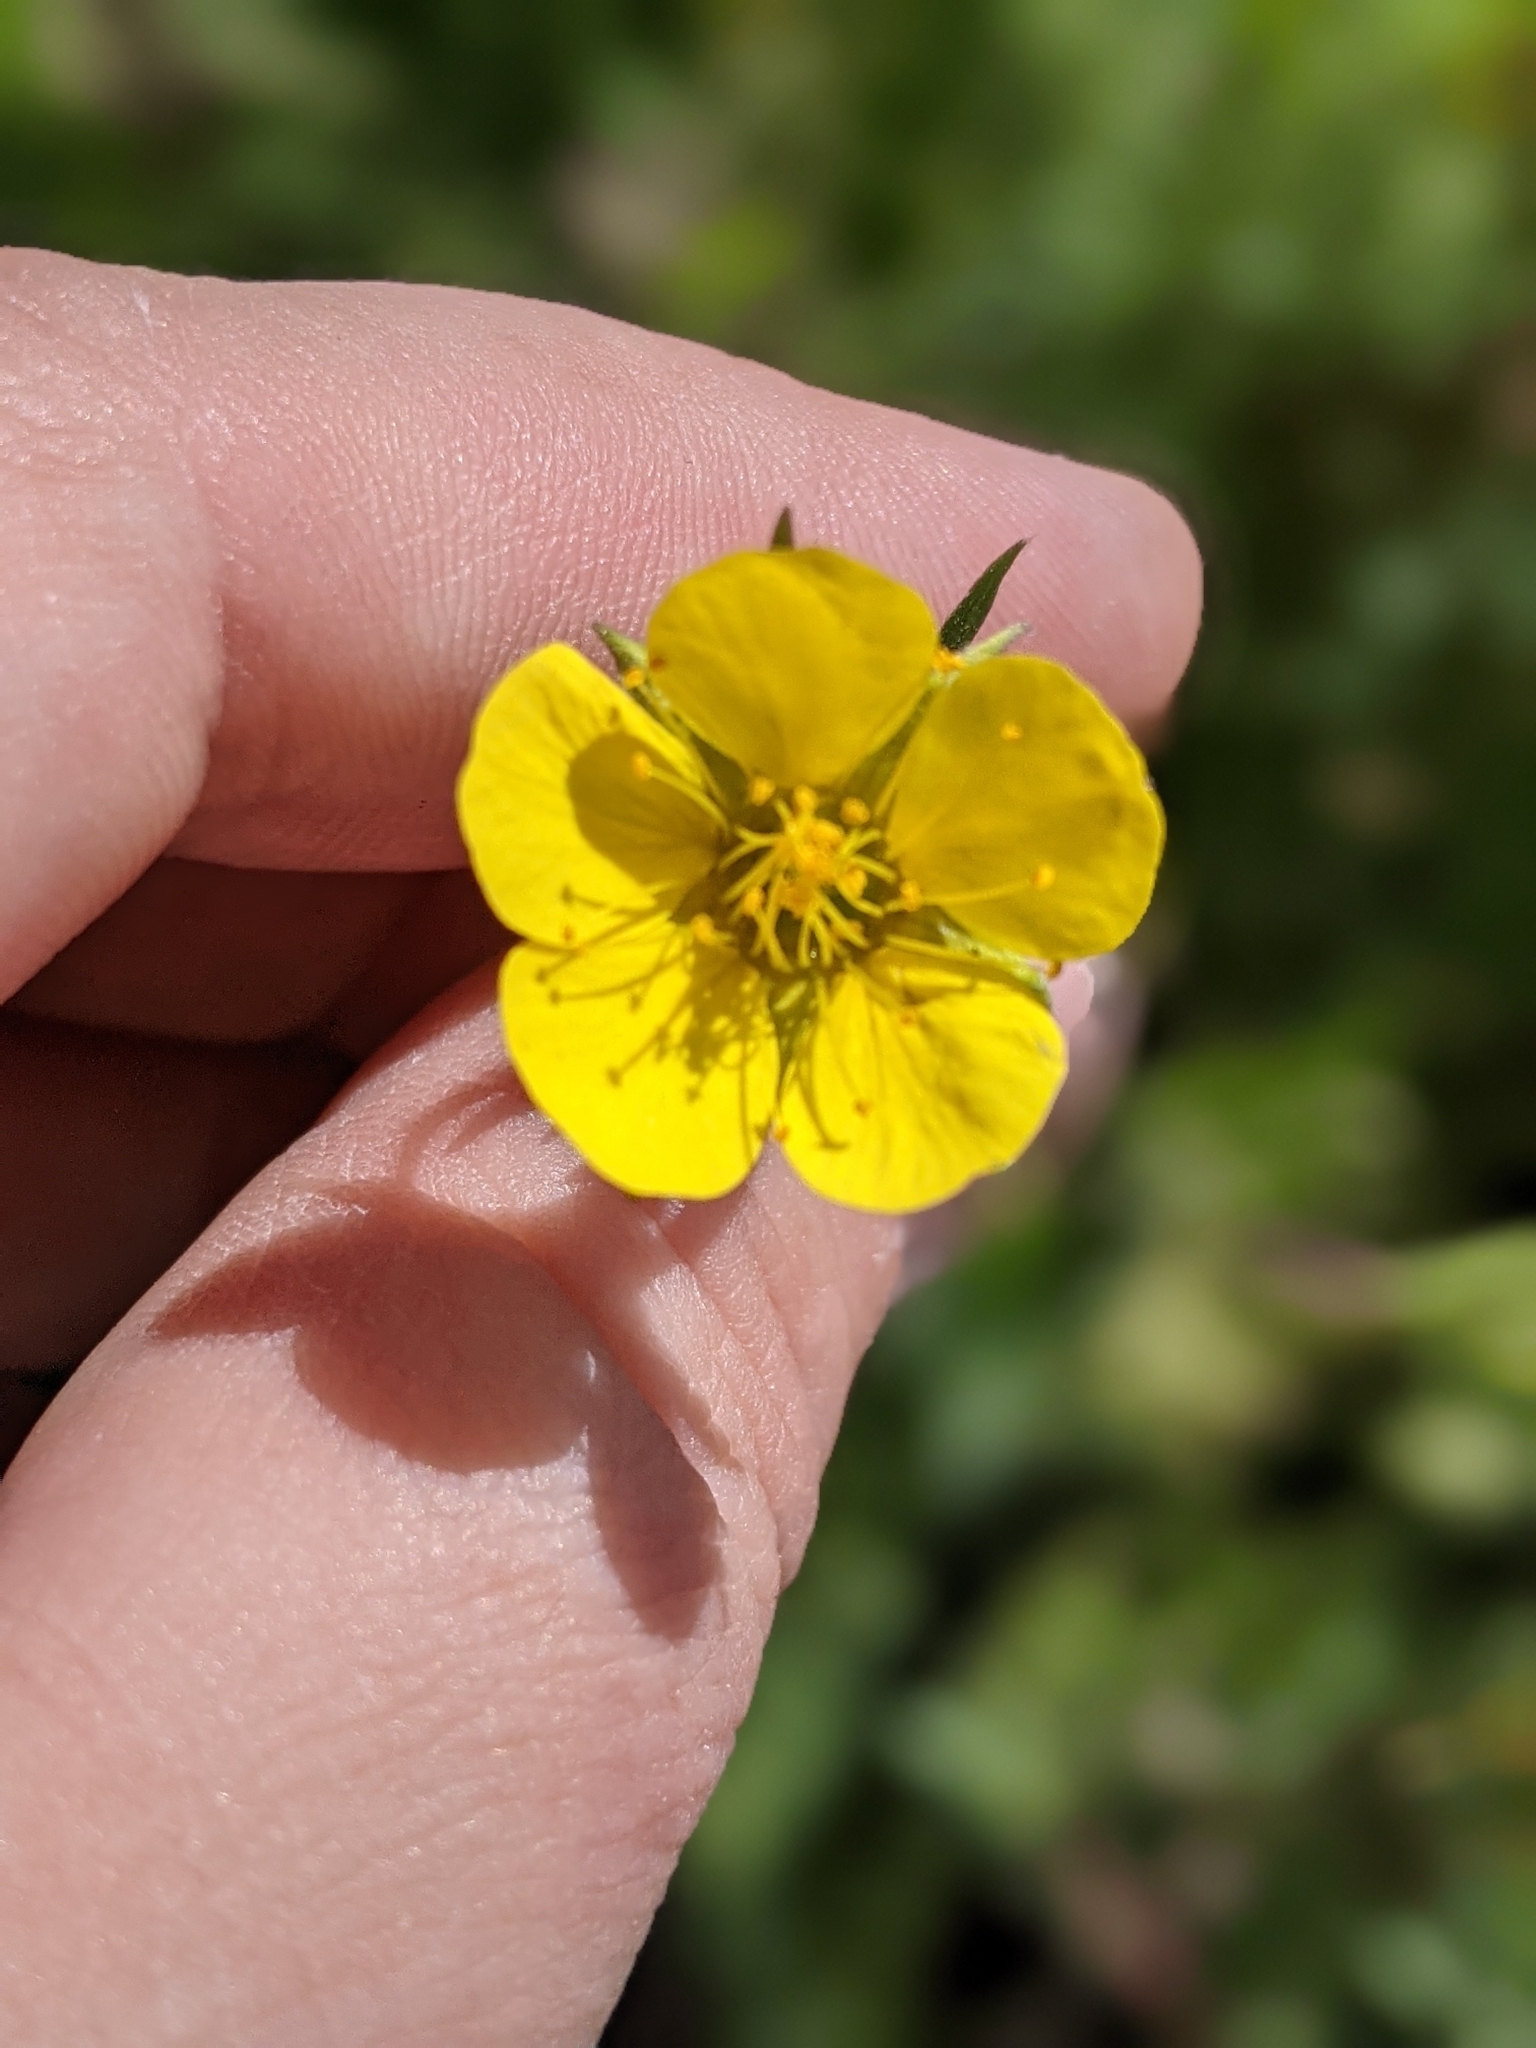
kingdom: Plantae
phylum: Tracheophyta
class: Magnoliopsida
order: Rosales
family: Rosaceae
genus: Geum
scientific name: Geum rossii
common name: Alpine avens
